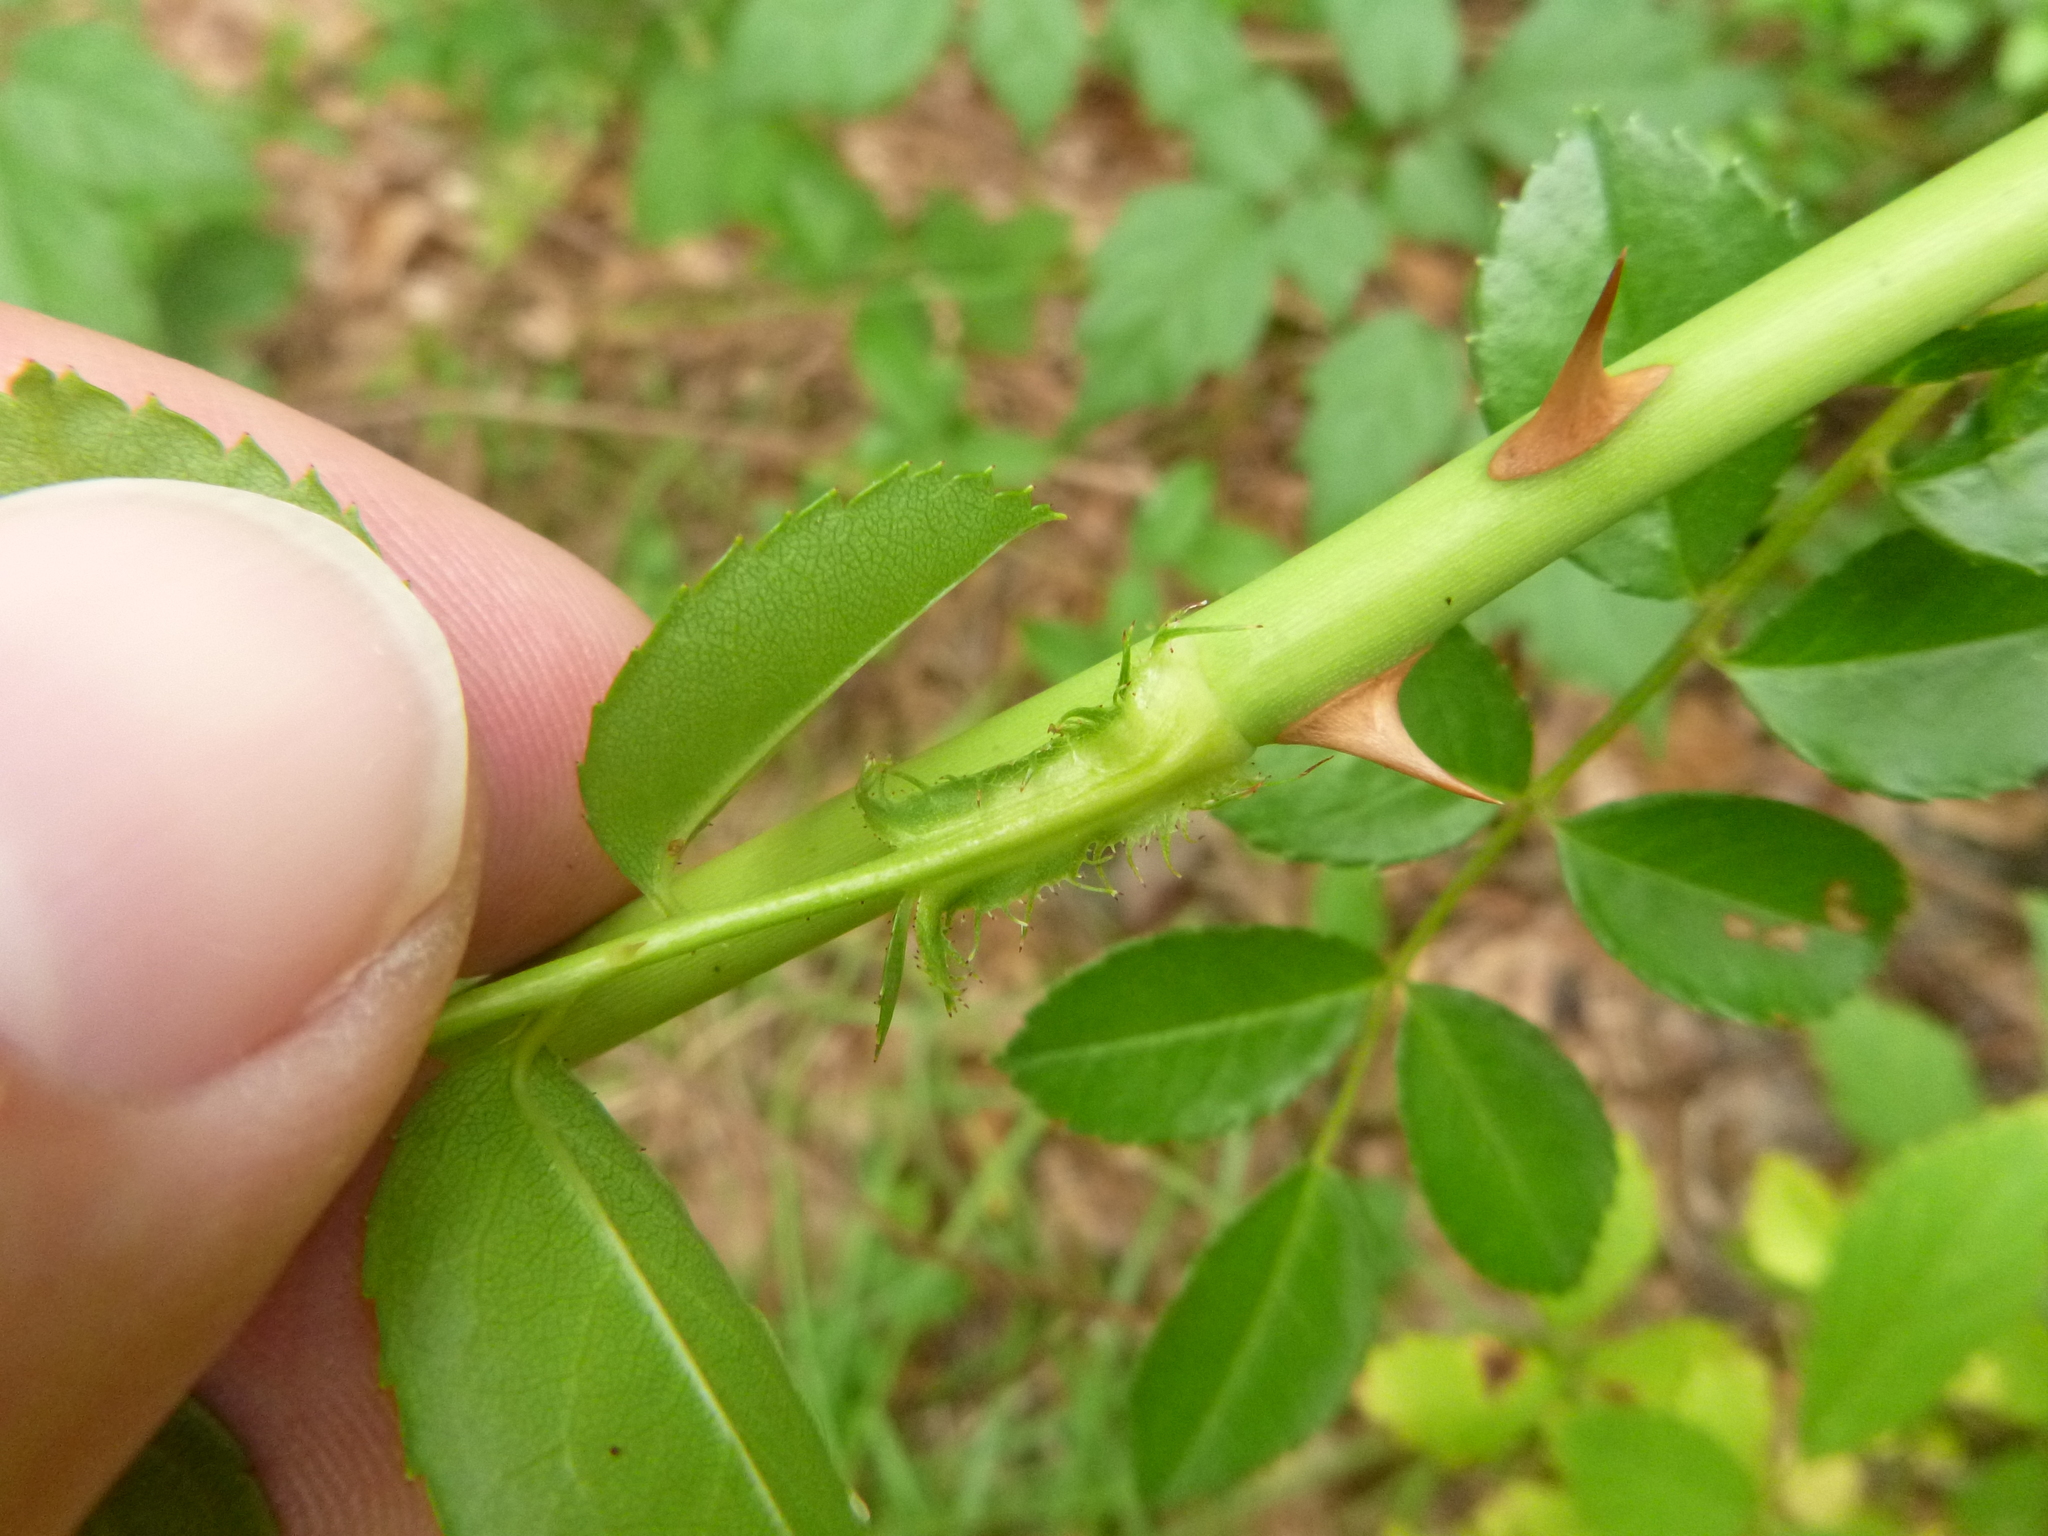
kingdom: Plantae
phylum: Tracheophyta
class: Magnoliopsida
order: Rosales
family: Rosaceae
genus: Rosa
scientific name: Rosa lucieae
